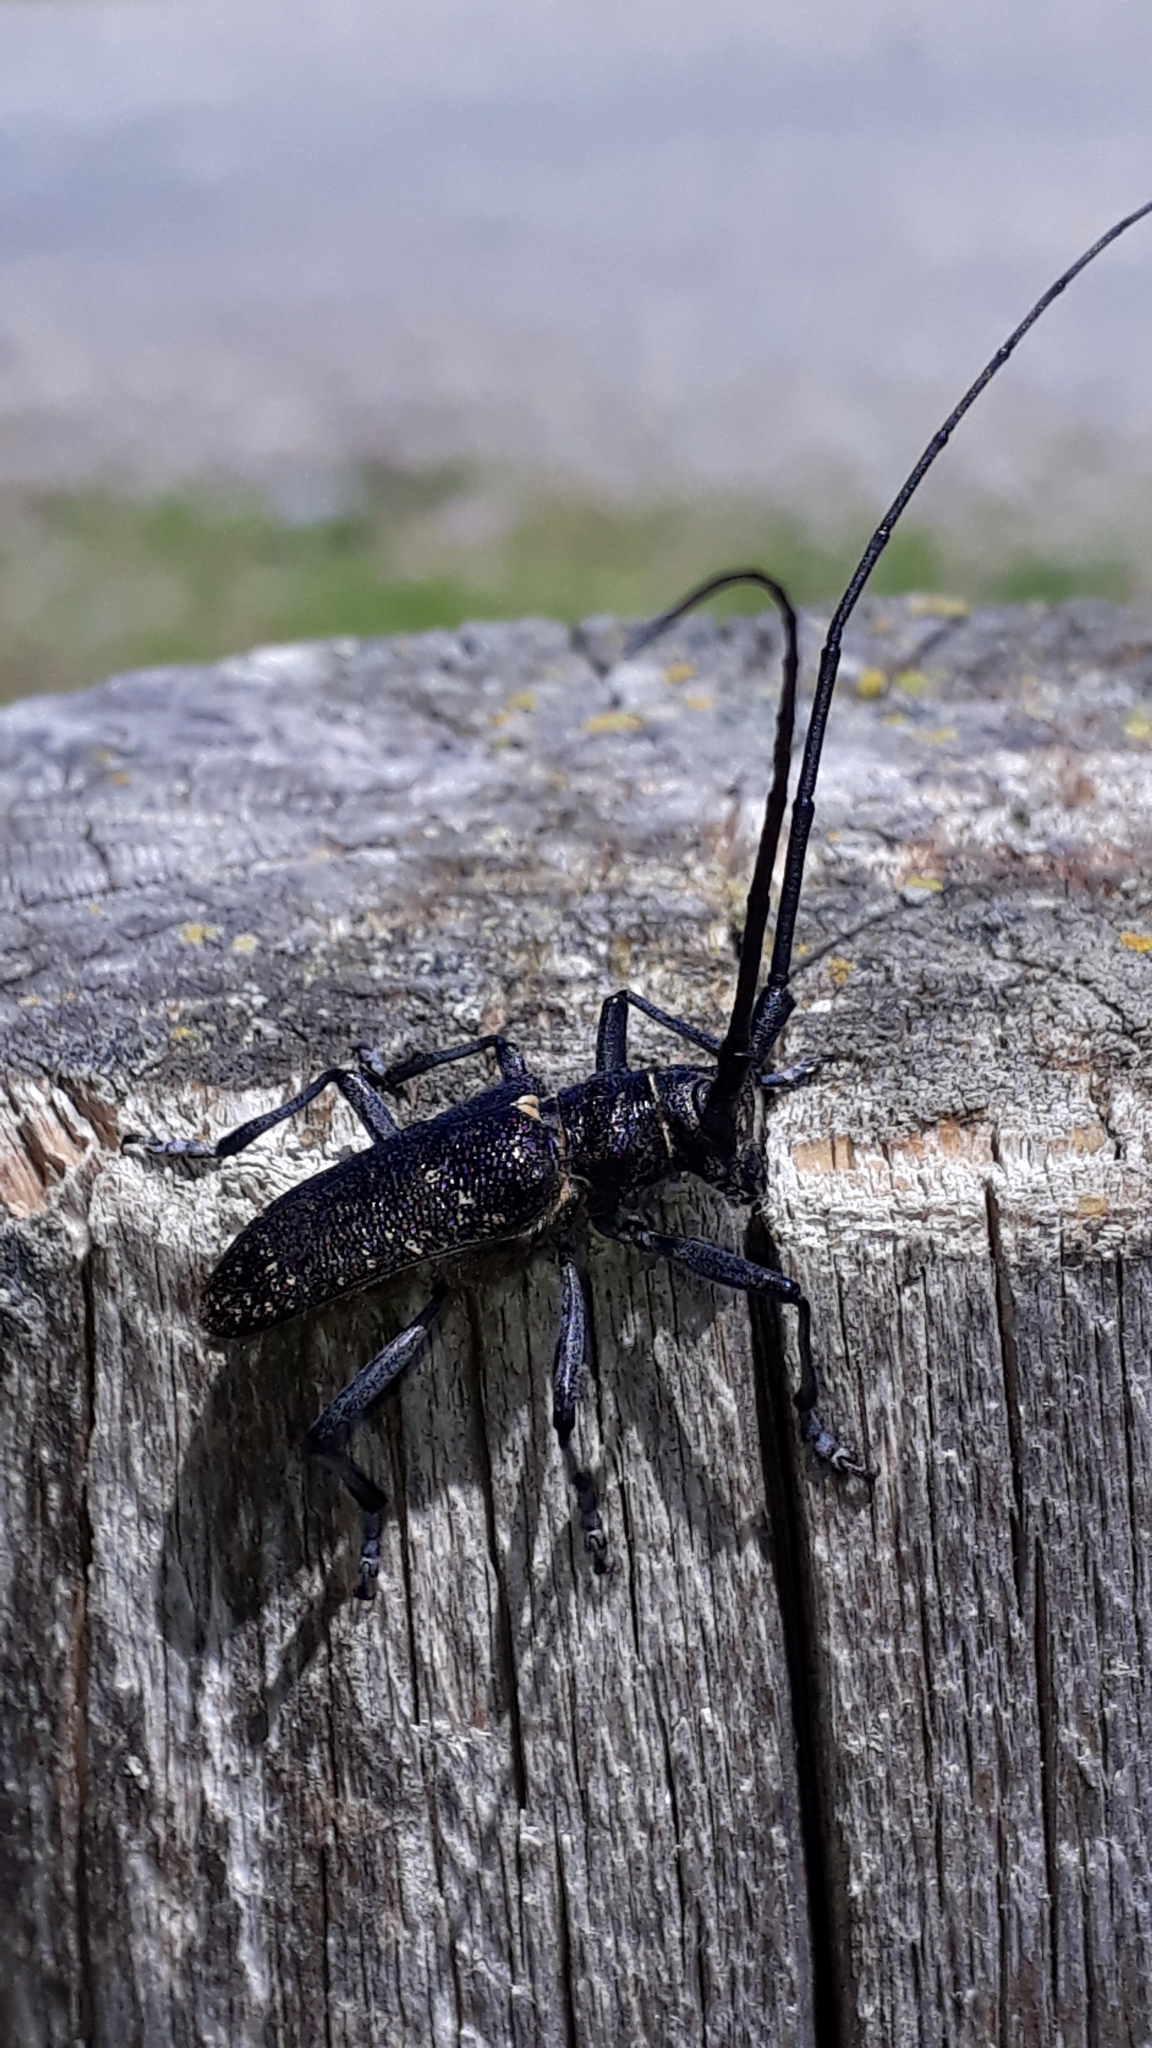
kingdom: Animalia
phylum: Arthropoda
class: Insecta
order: Coleoptera
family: Cerambycidae
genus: Monochamus
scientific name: Monochamus sutor
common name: Pine sawyer
